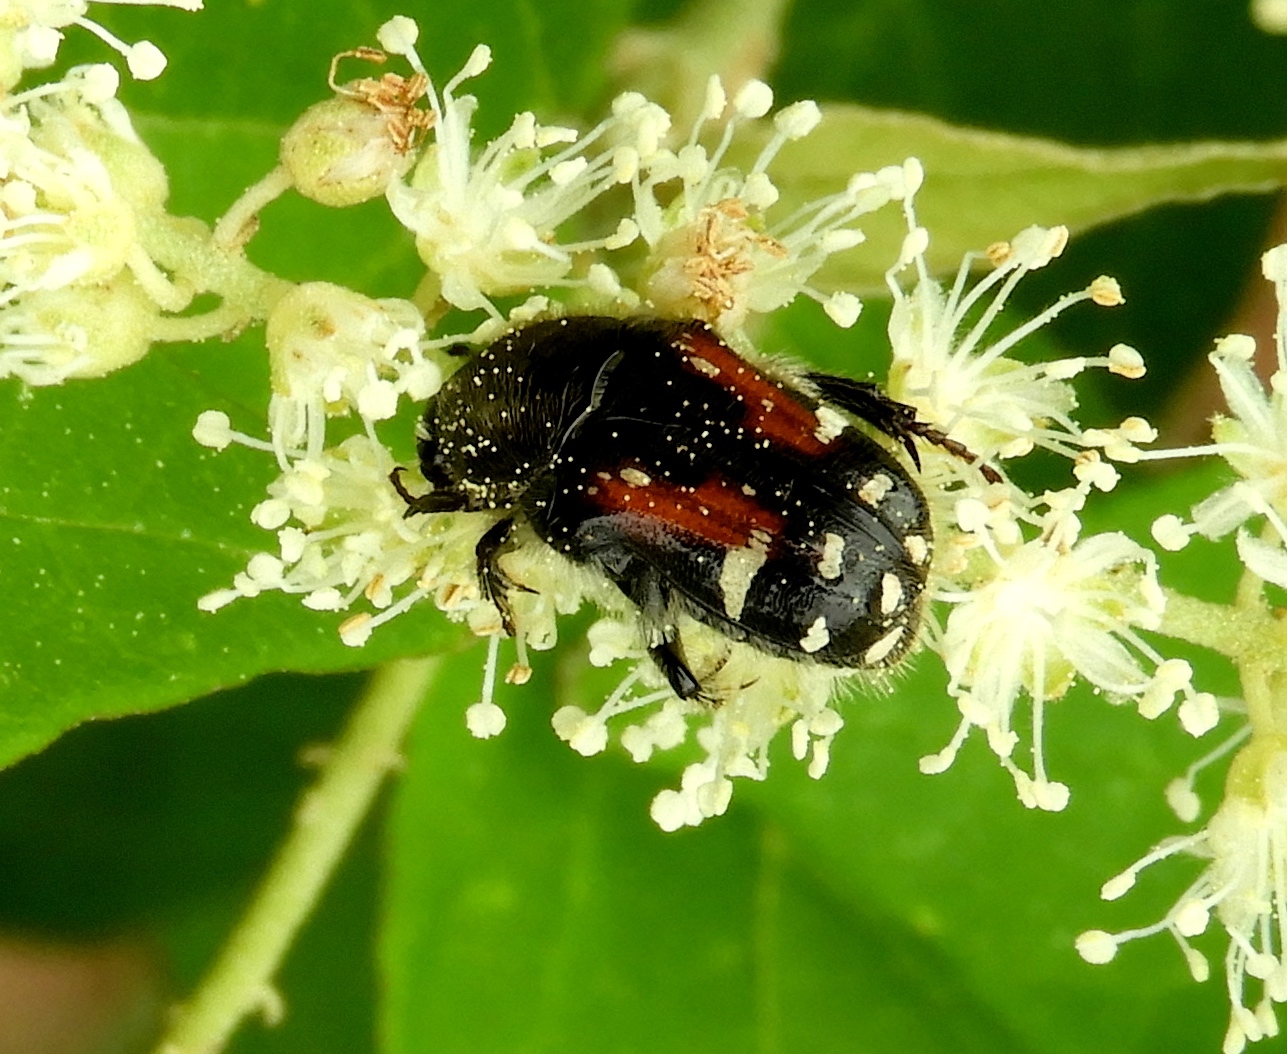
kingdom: Animalia
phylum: Arthropoda
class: Insecta
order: Coleoptera
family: Scarabaeidae
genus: Euphoria
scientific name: Euphoria pulchella
